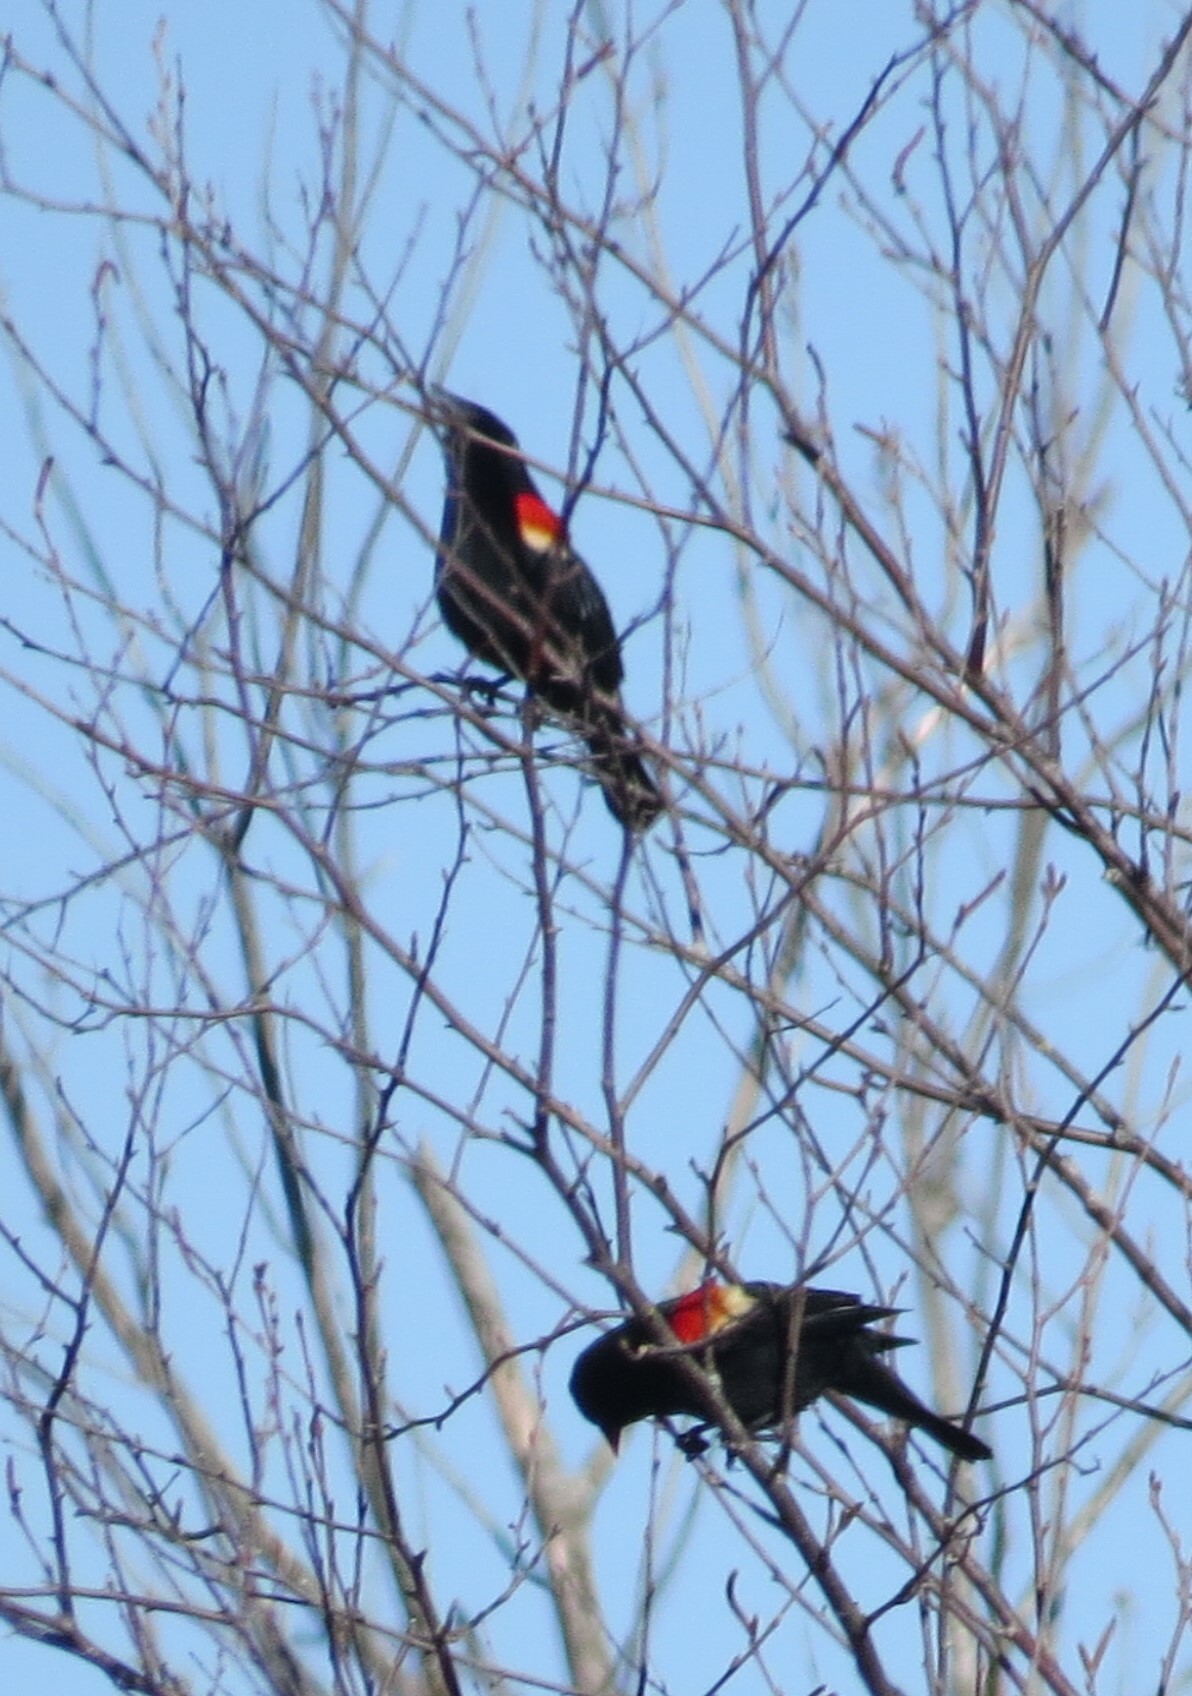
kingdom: Animalia
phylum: Chordata
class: Aves
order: Passeriformes
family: Icteridae
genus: Agelaius
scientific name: Agelaius phoeniceus
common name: Red-winged blackbird
